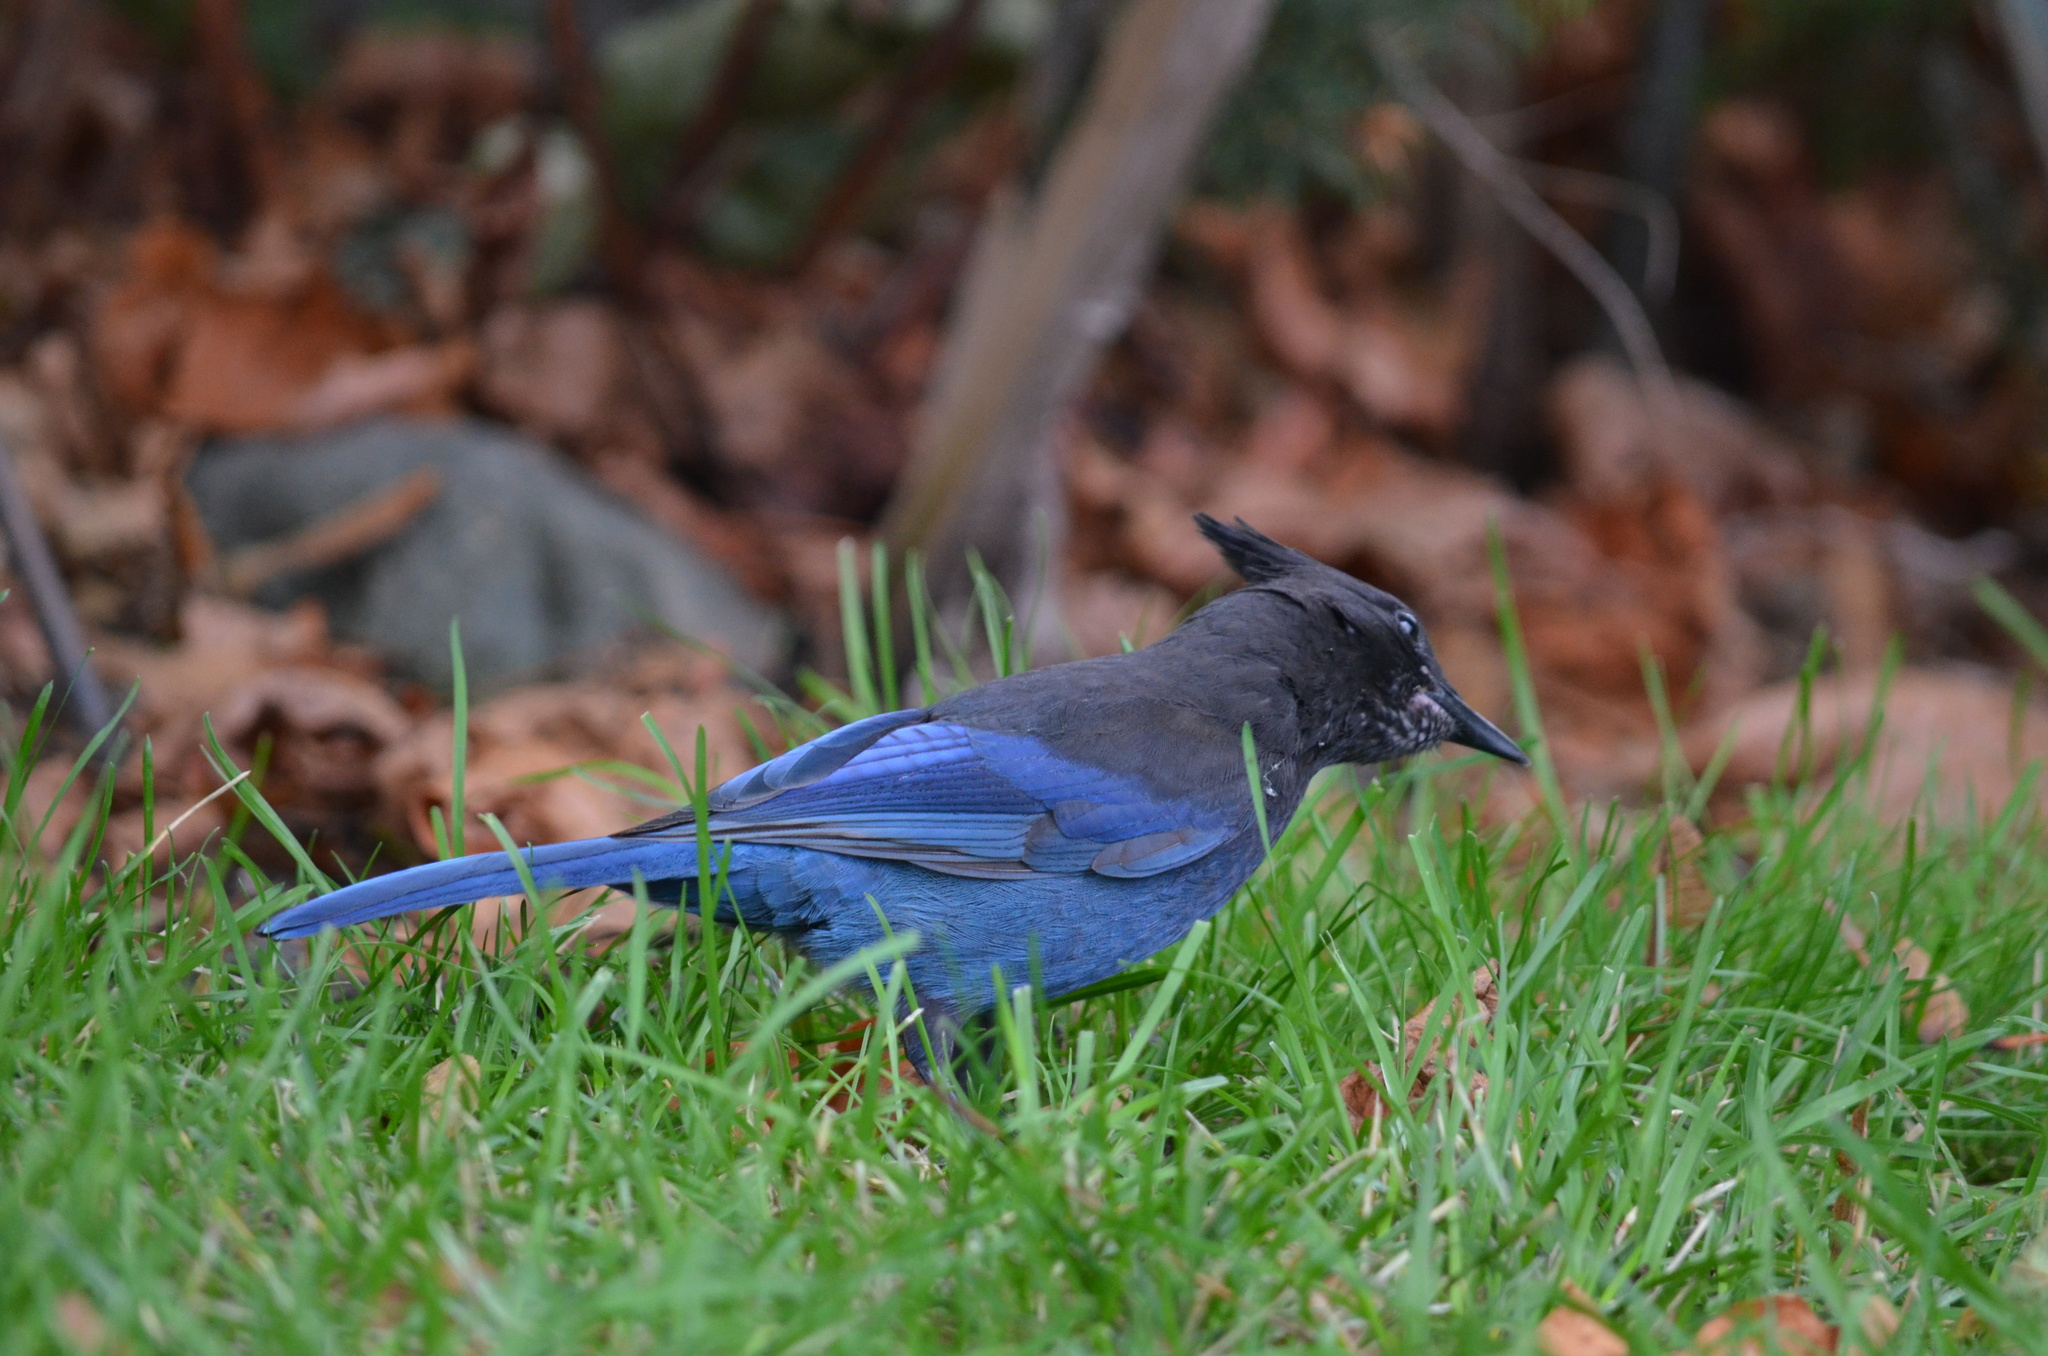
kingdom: Animalia
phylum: Chordata
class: Aves
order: Passeriformes
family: Corvidae
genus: Cyanocitta
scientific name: Cyanocitta stelleri
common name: Steller's jay
